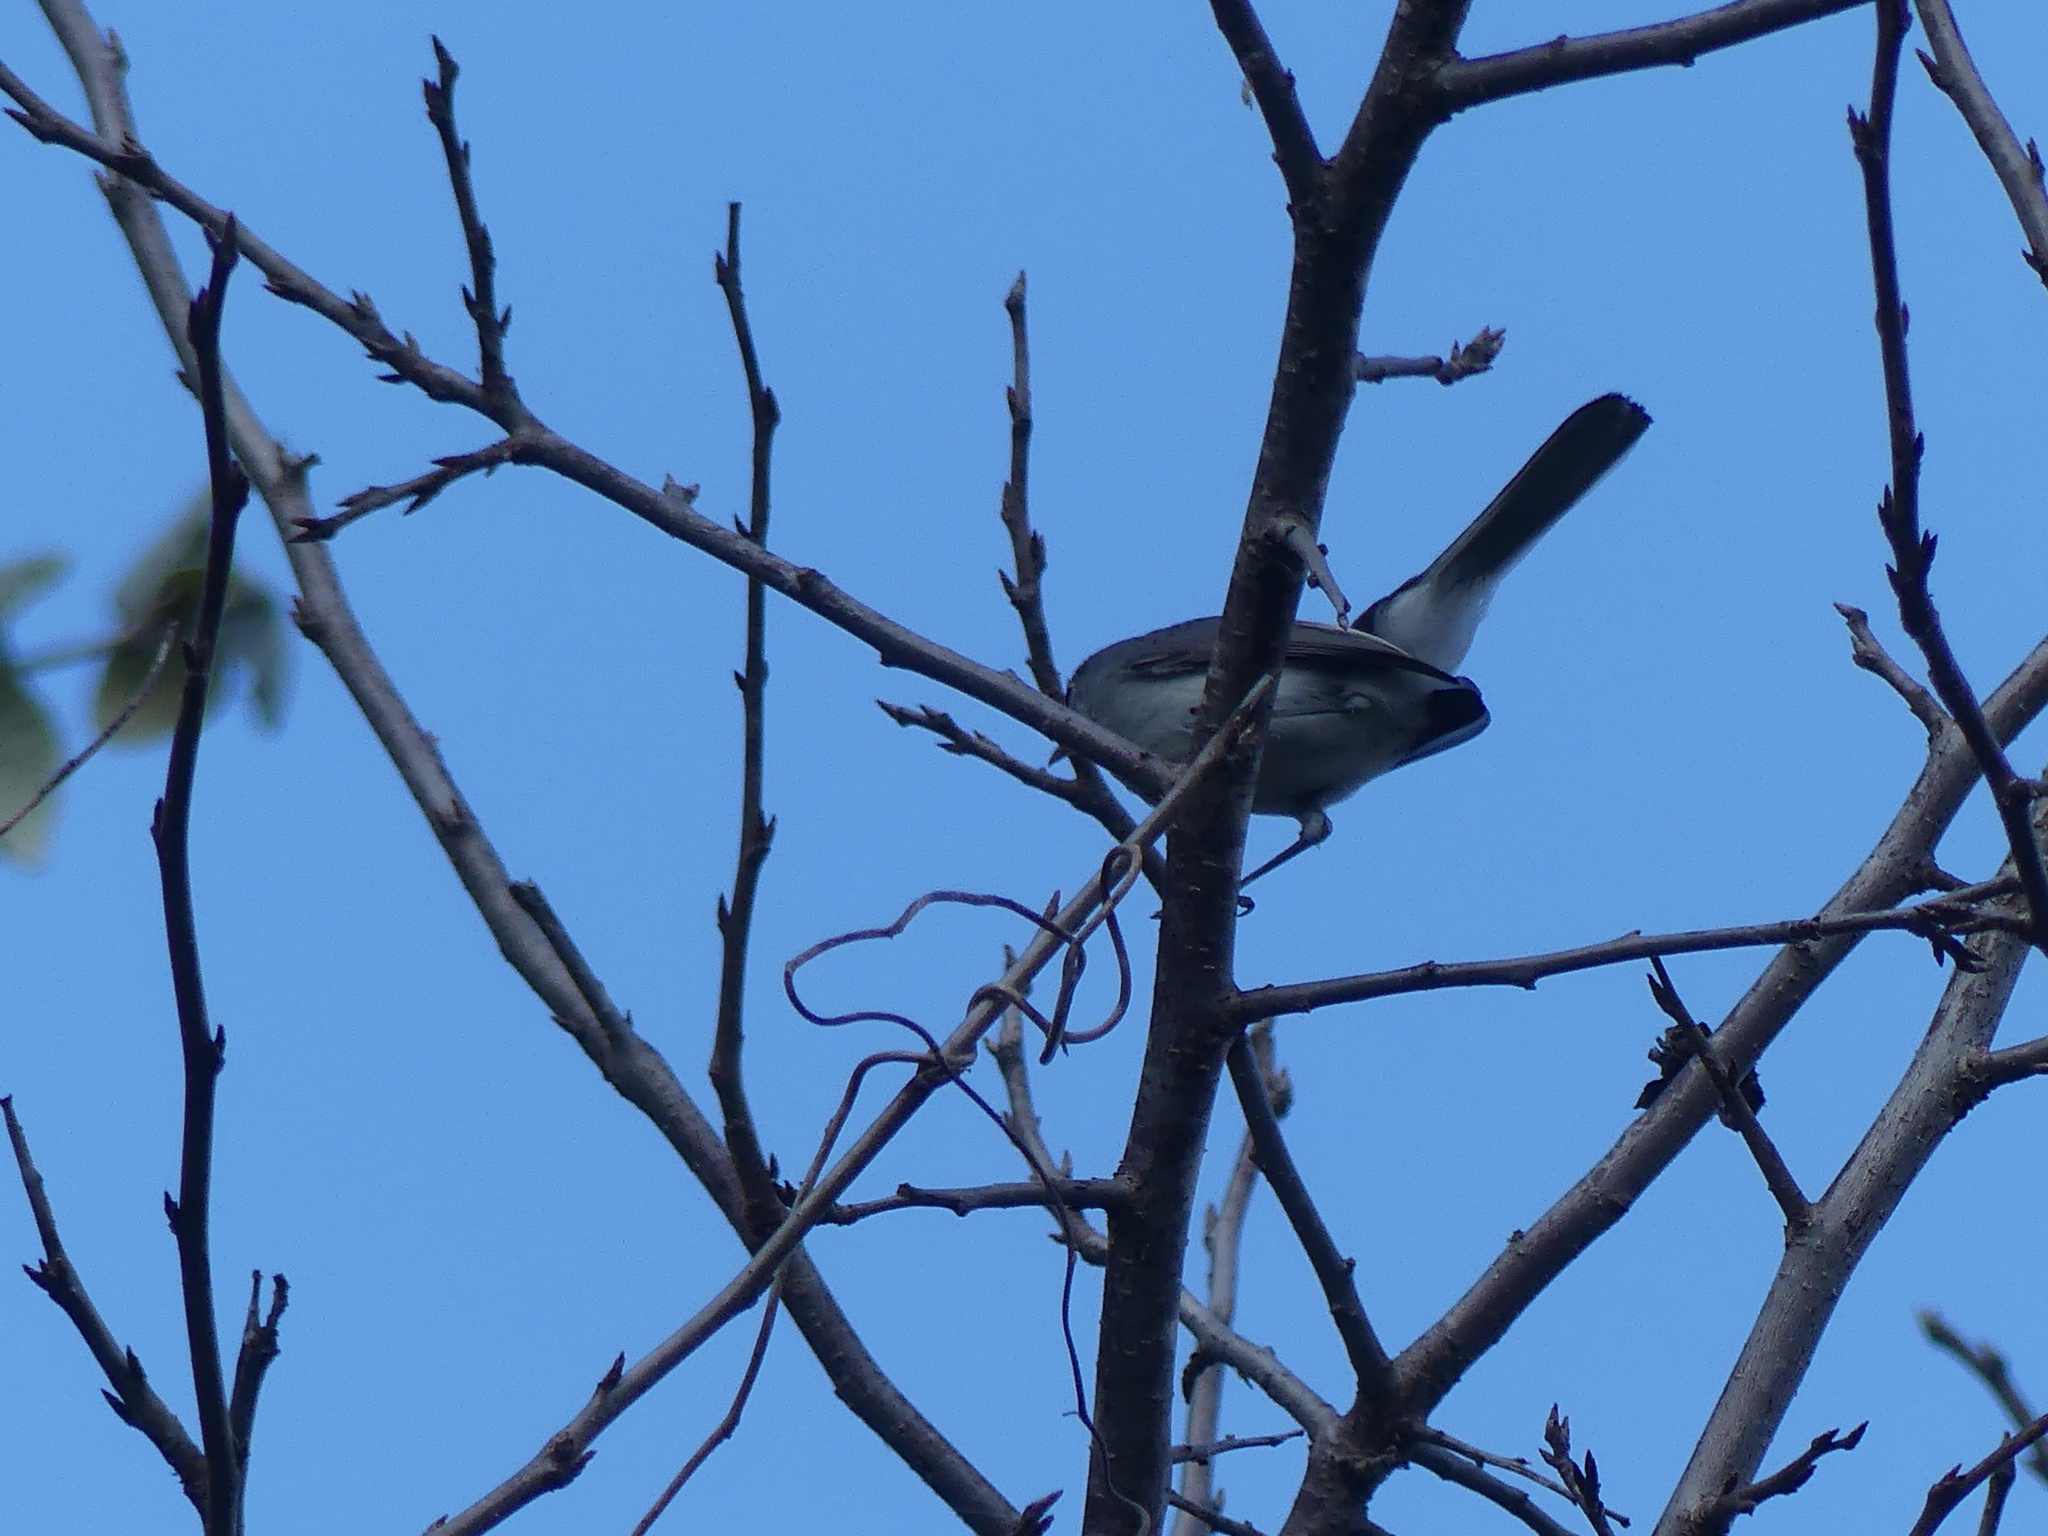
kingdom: Animalia
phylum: Chordata
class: Aves
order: Passeriformes
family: Polioptilidae
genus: Polioptila
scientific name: Polioptila caerulea
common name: Blue-gray gnatcatcher
